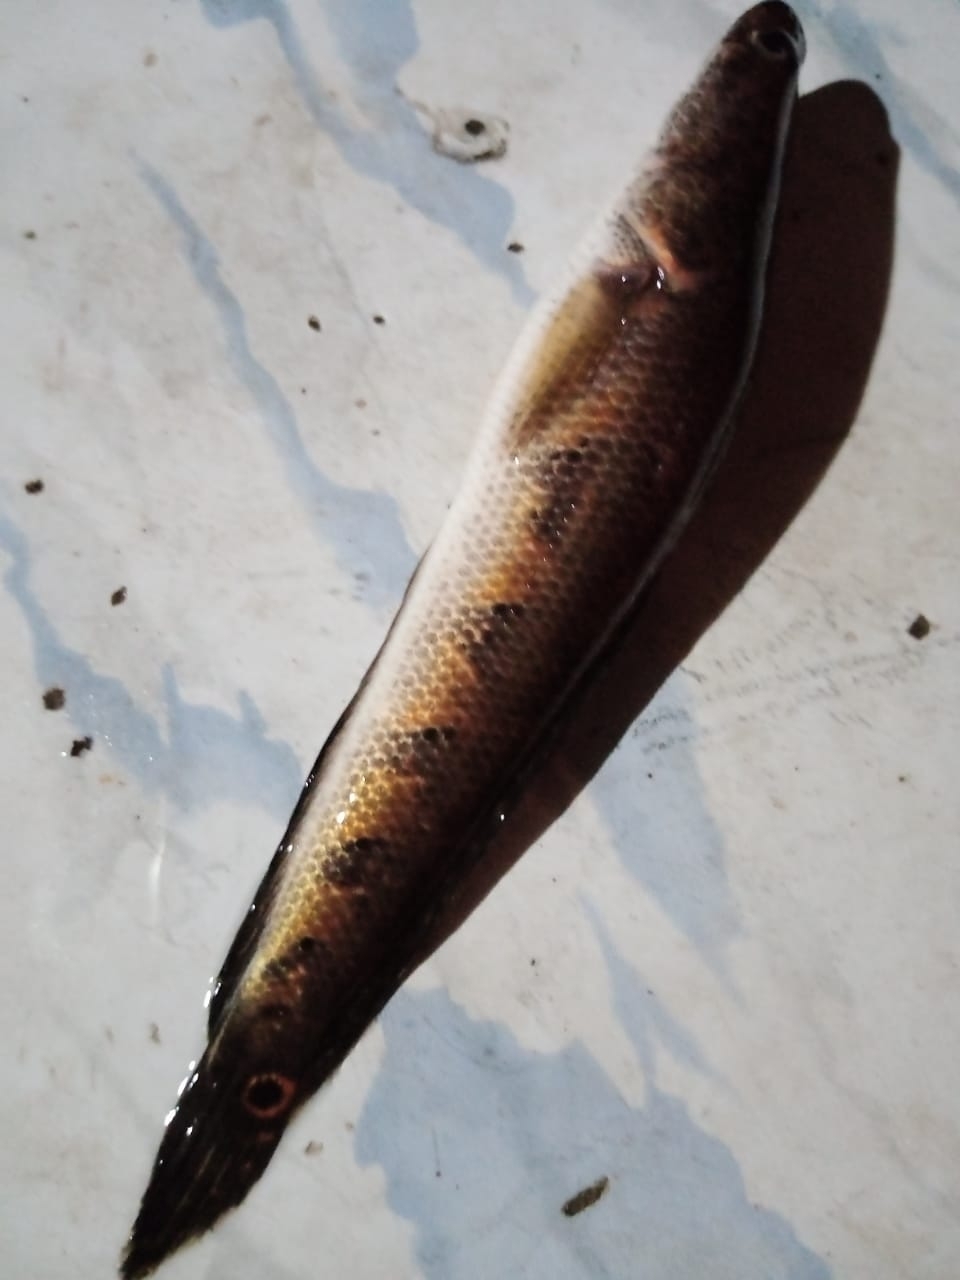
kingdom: Animalia
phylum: Chordata
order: Perciformes
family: Channidae
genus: Channa
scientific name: Channa marulius
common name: Giant snakehead
